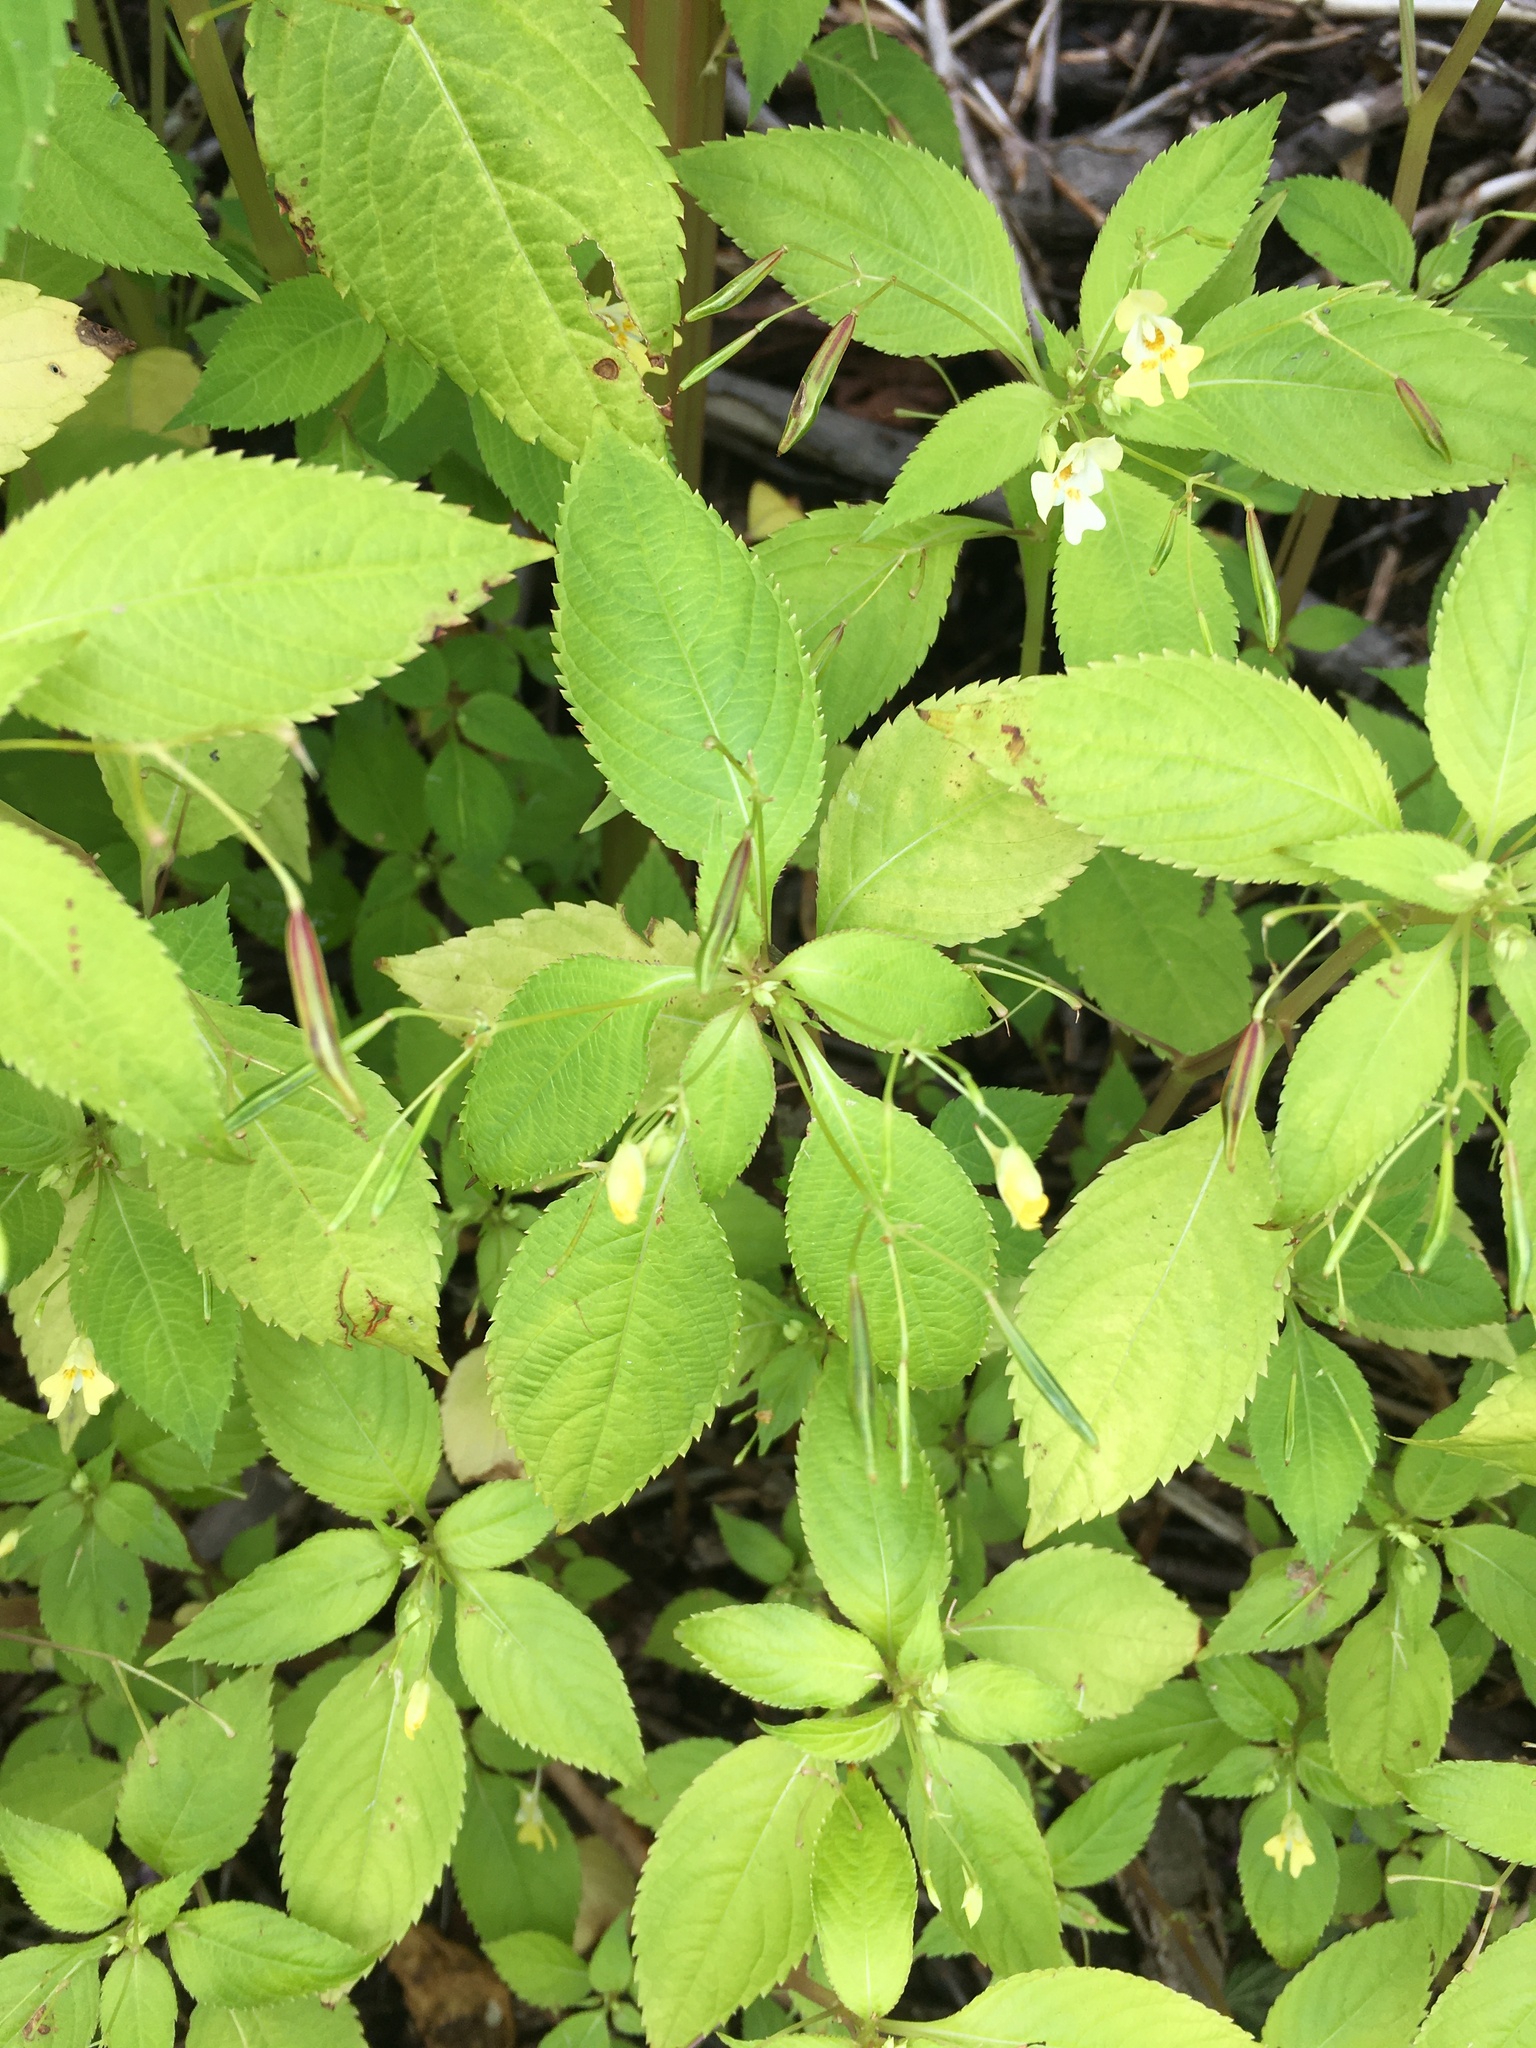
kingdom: Plantae
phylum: Tracheophyta
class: Magnoliopsida
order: Ericales
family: Balsaminaceae
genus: Impatiens
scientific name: Impatiens parviflora
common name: Small balsam
